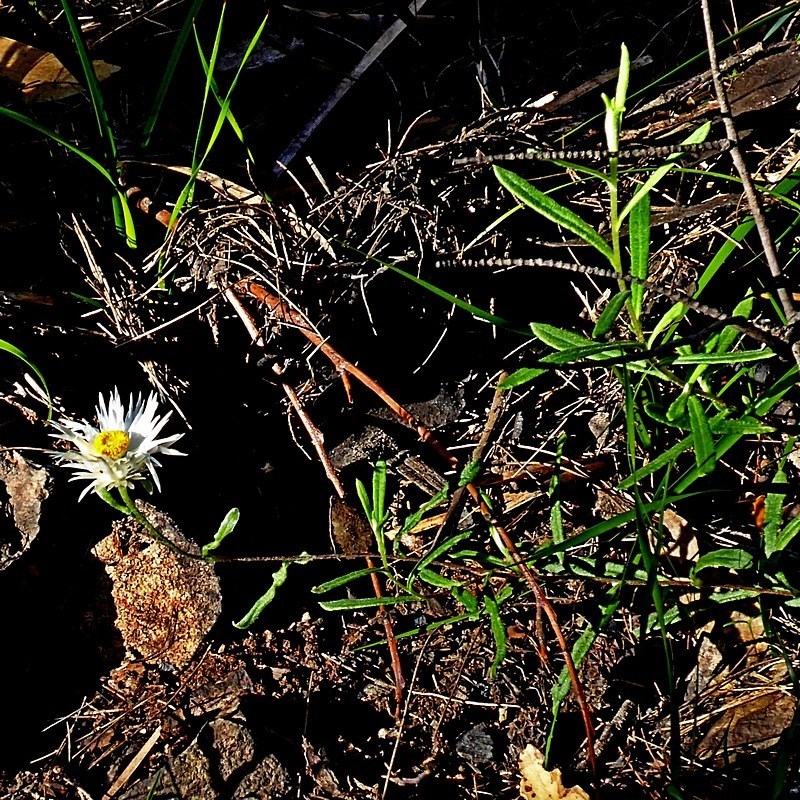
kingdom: Plantae
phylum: Tracheophyta
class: Magnoliopsida
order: Asterales
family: Asteraceae
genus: Helichrysum
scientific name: Helichrysum leucopsideum
